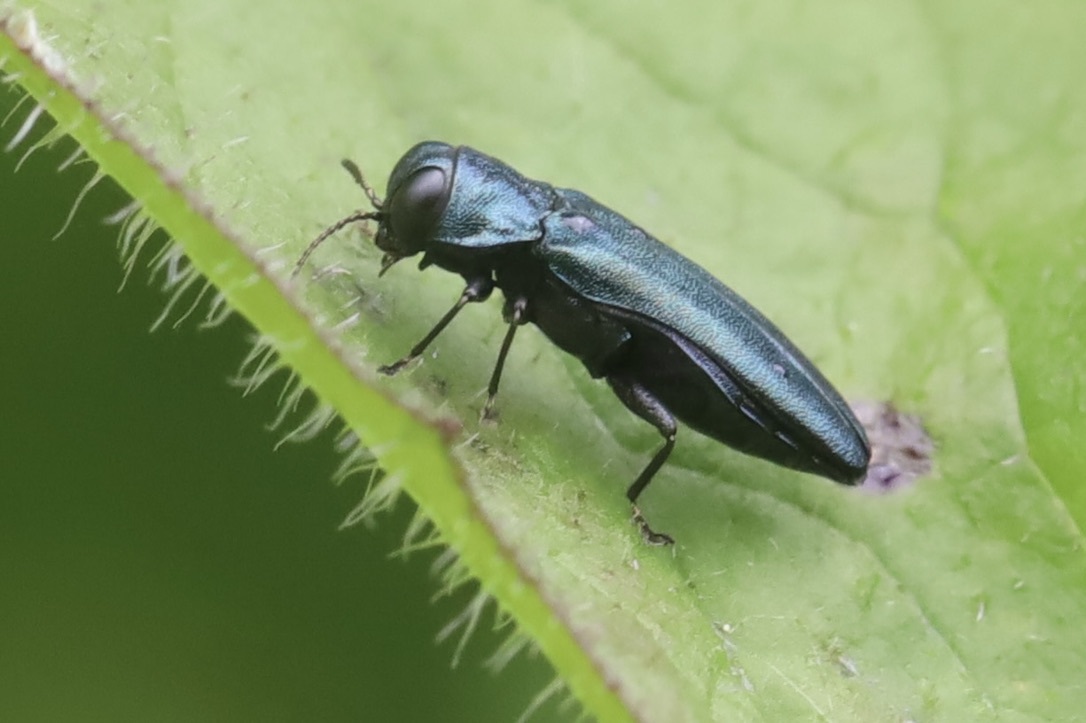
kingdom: Animalia
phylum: Arthropoda
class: Insecta
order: Coleoptera
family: Buprestidae
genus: Agrilus
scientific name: Agrilus cyanescens
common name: Bluish borer beetle
